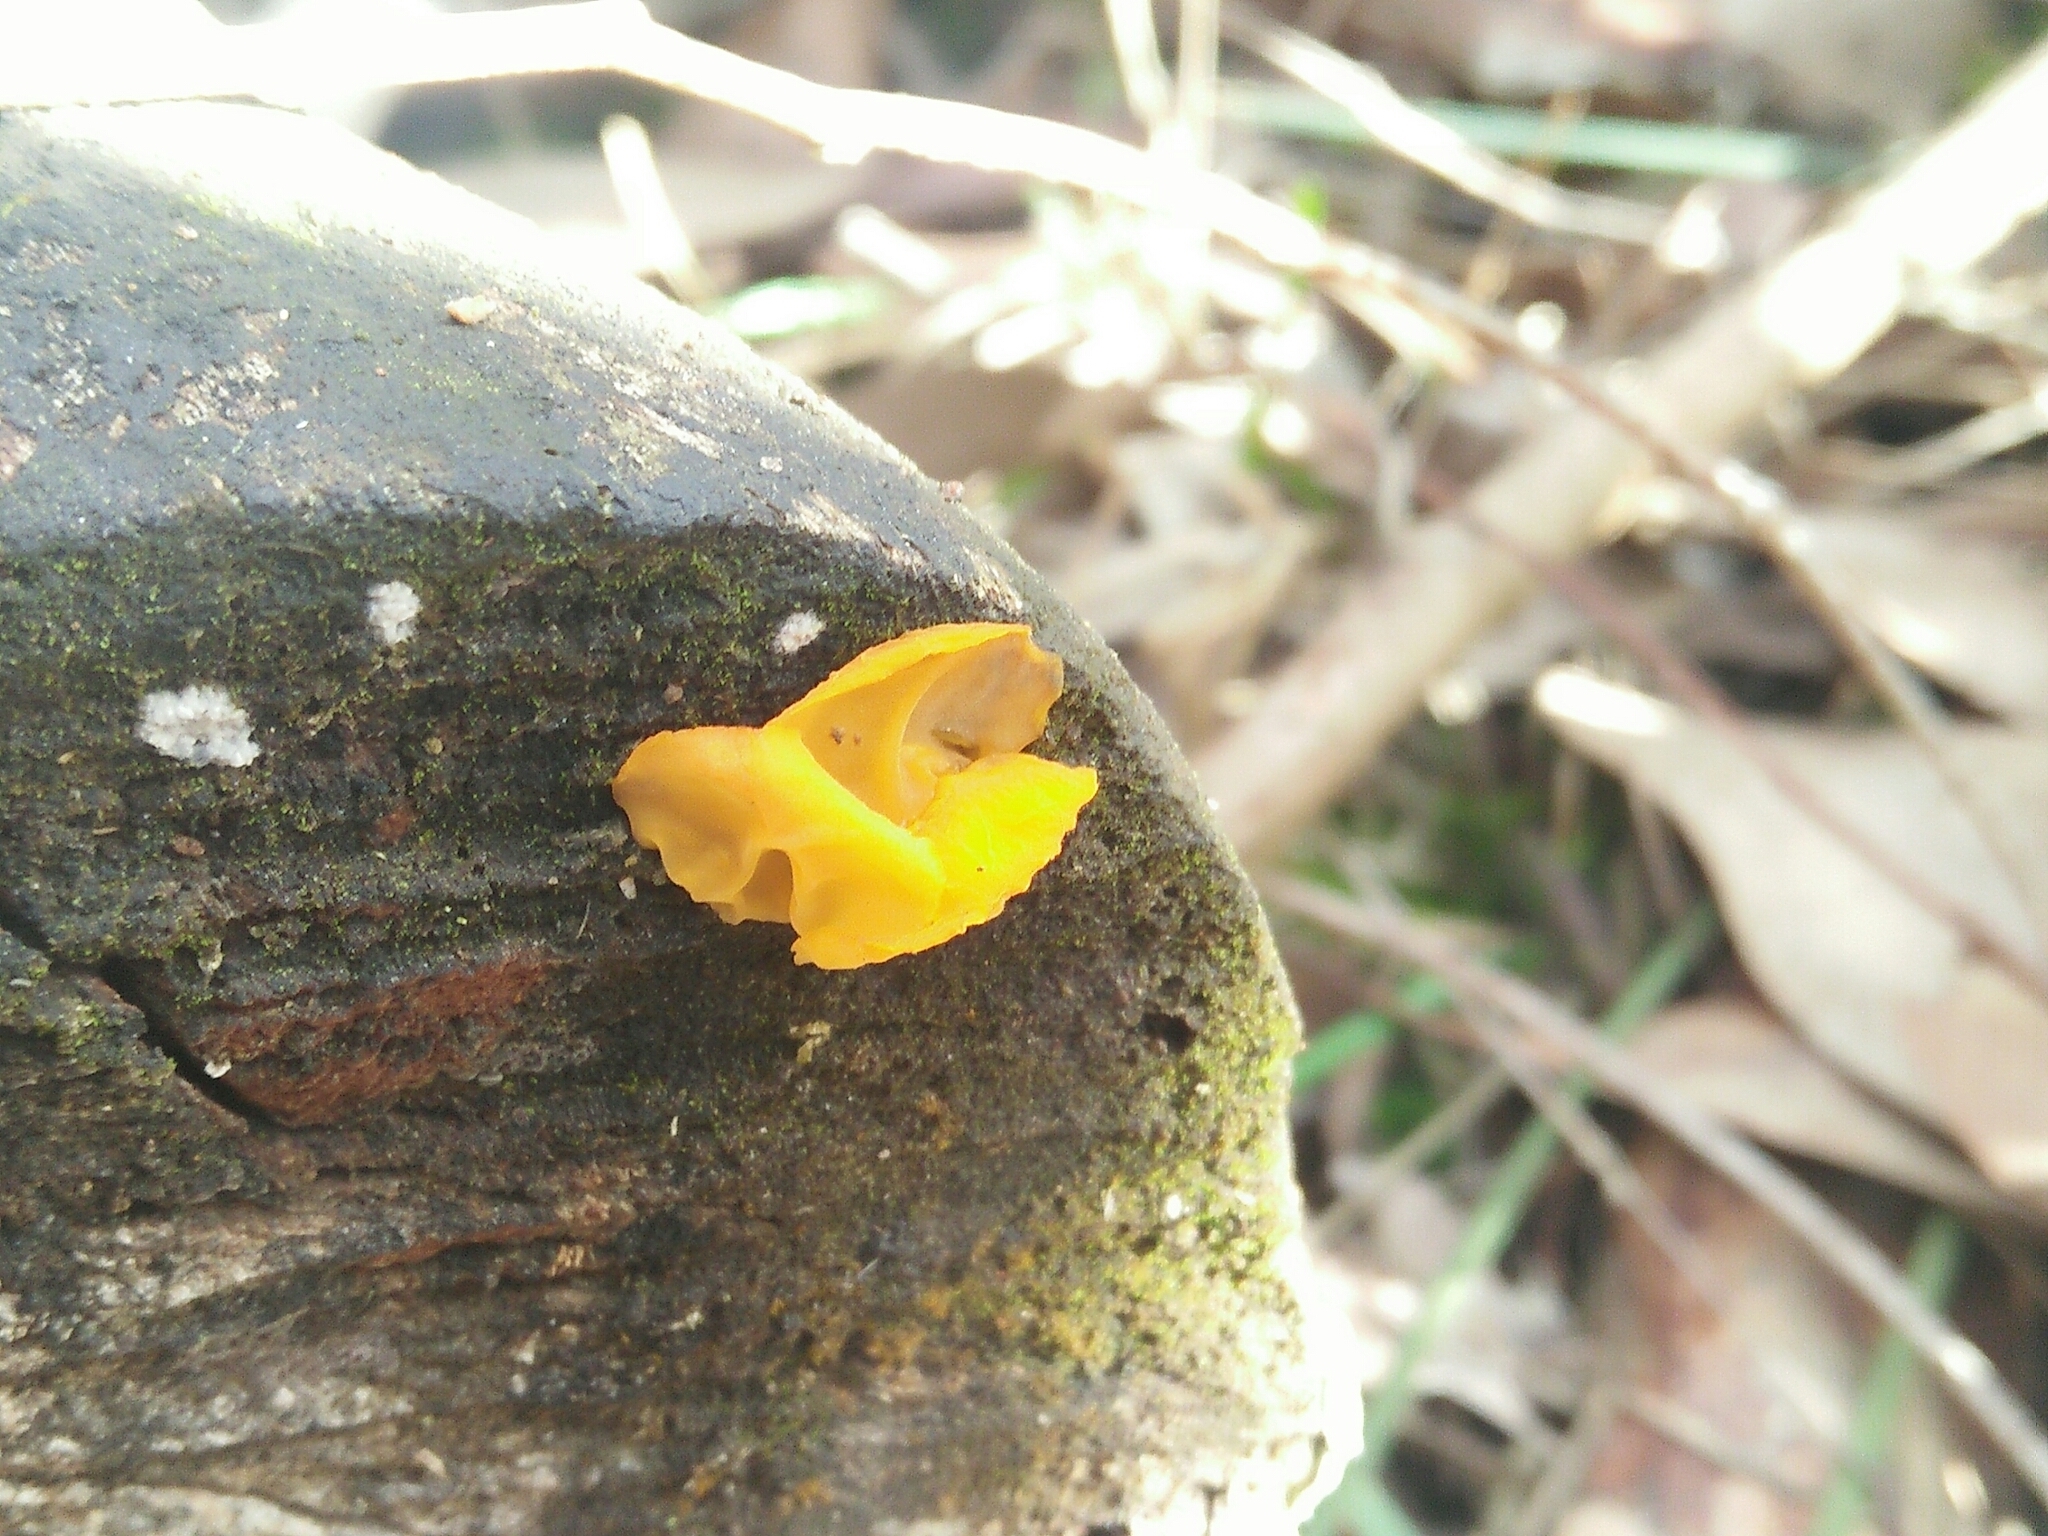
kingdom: Fungi
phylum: Basidiomycota
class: Tremellomycetes
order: Tremellales
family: Tremellaceae
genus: Tremella
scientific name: Tremella mesenterica
